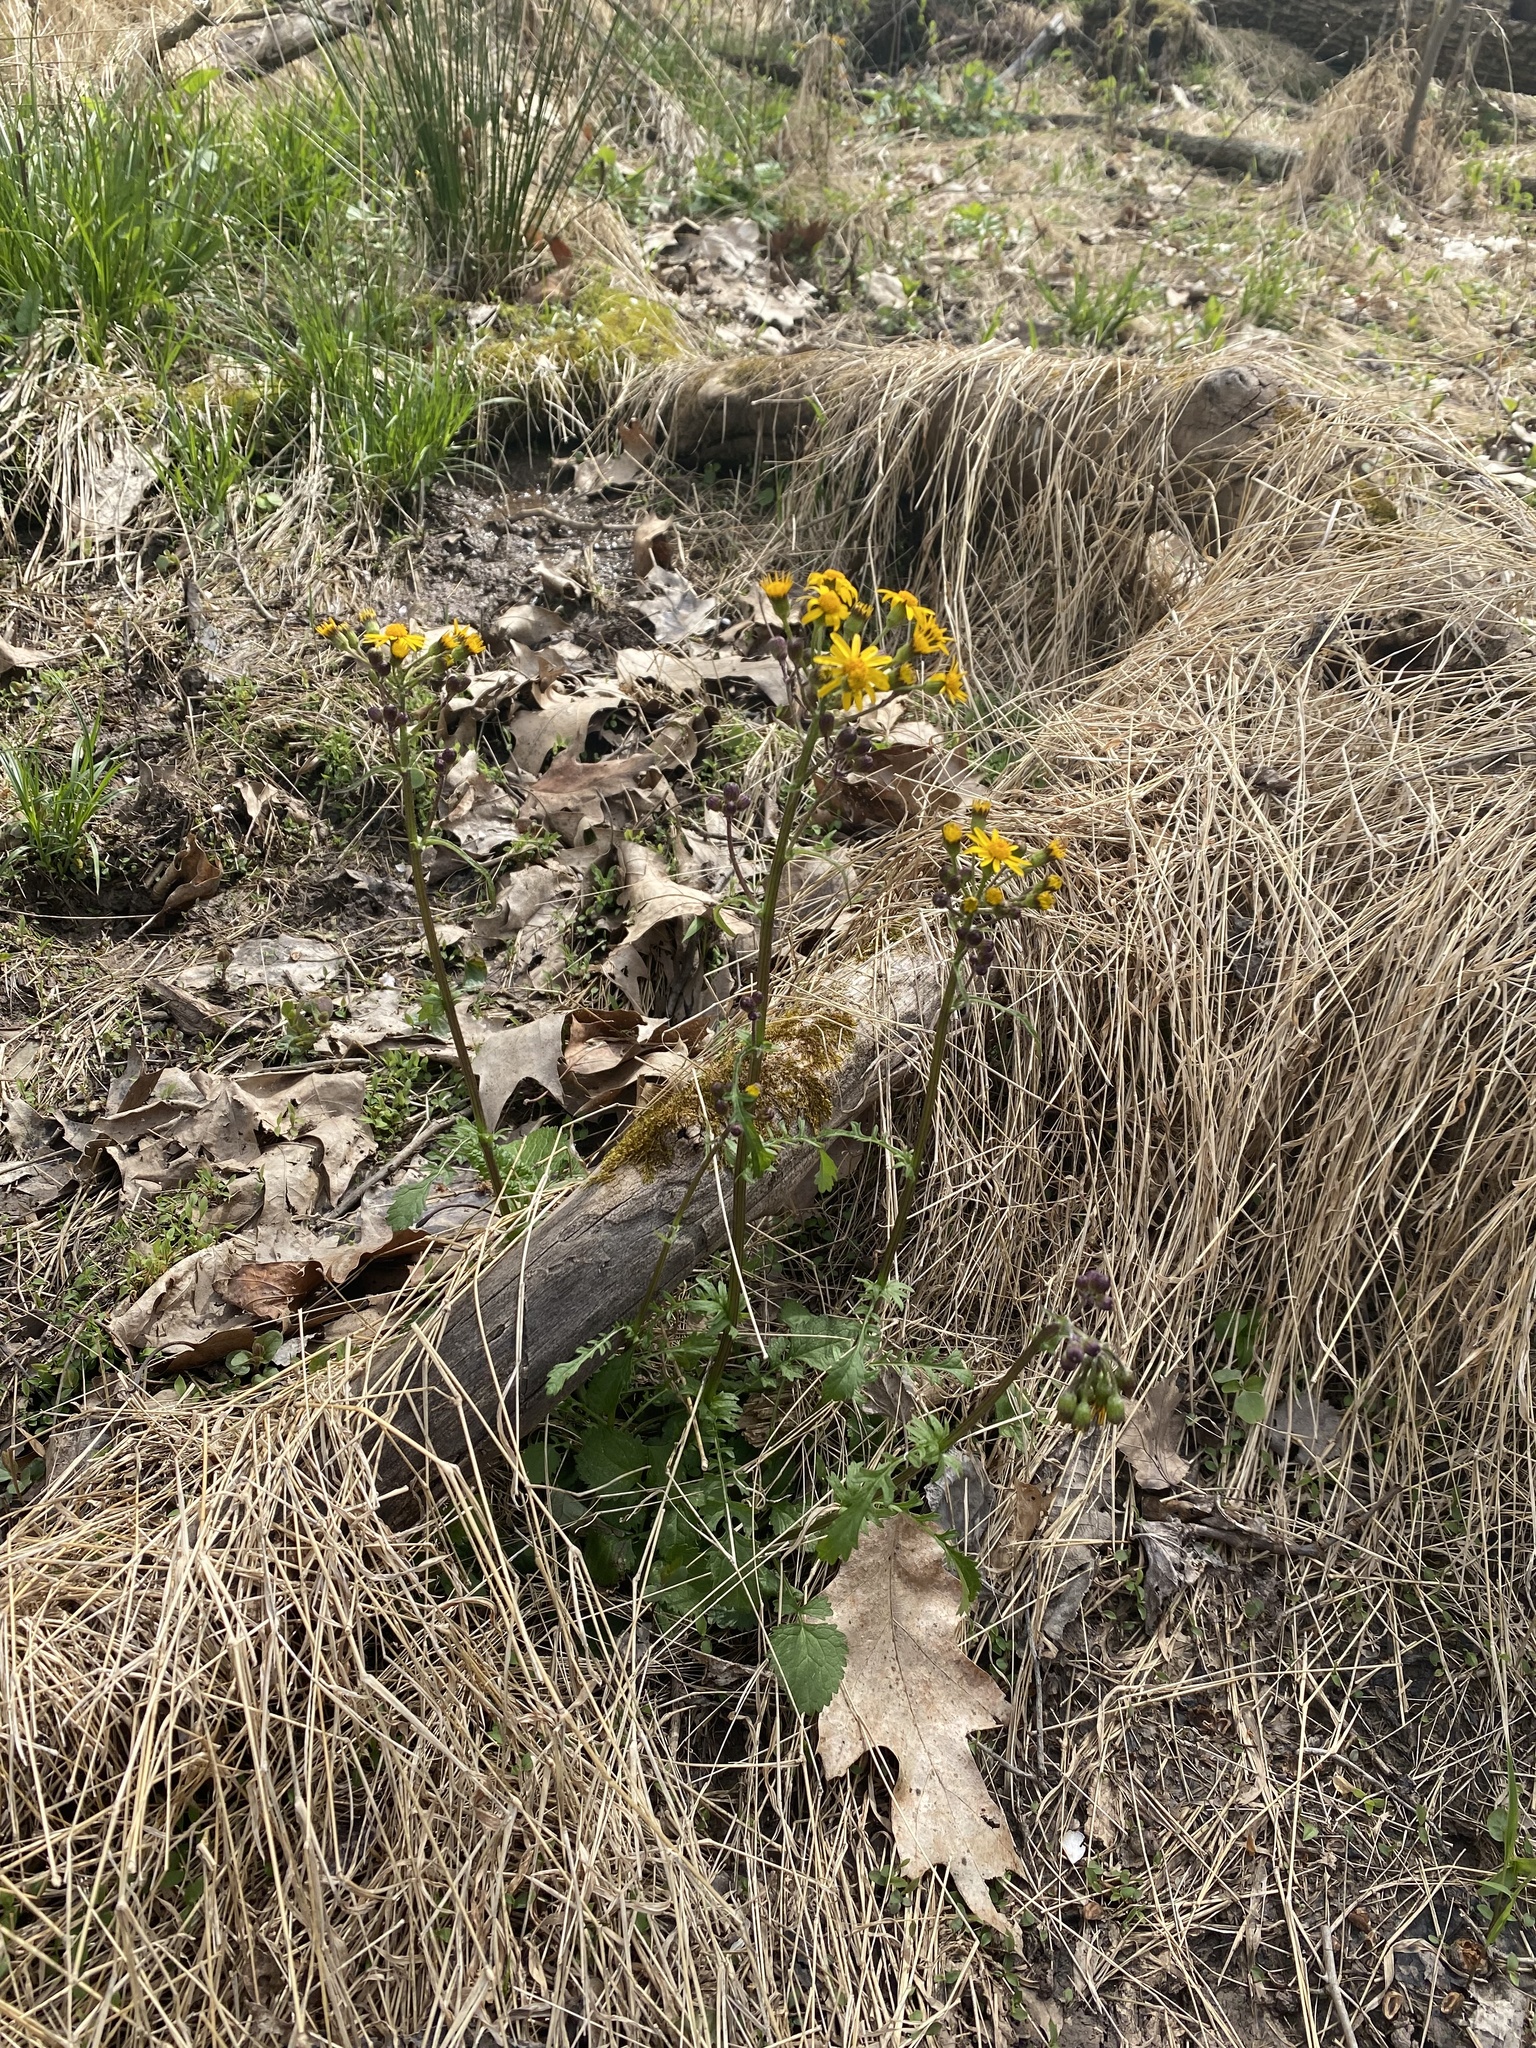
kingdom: Plantae
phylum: Tracheophyta
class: Magnoliopsida
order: Asterales
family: Asteraceae
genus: Packera
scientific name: Packera aurea
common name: Golden groundsel
